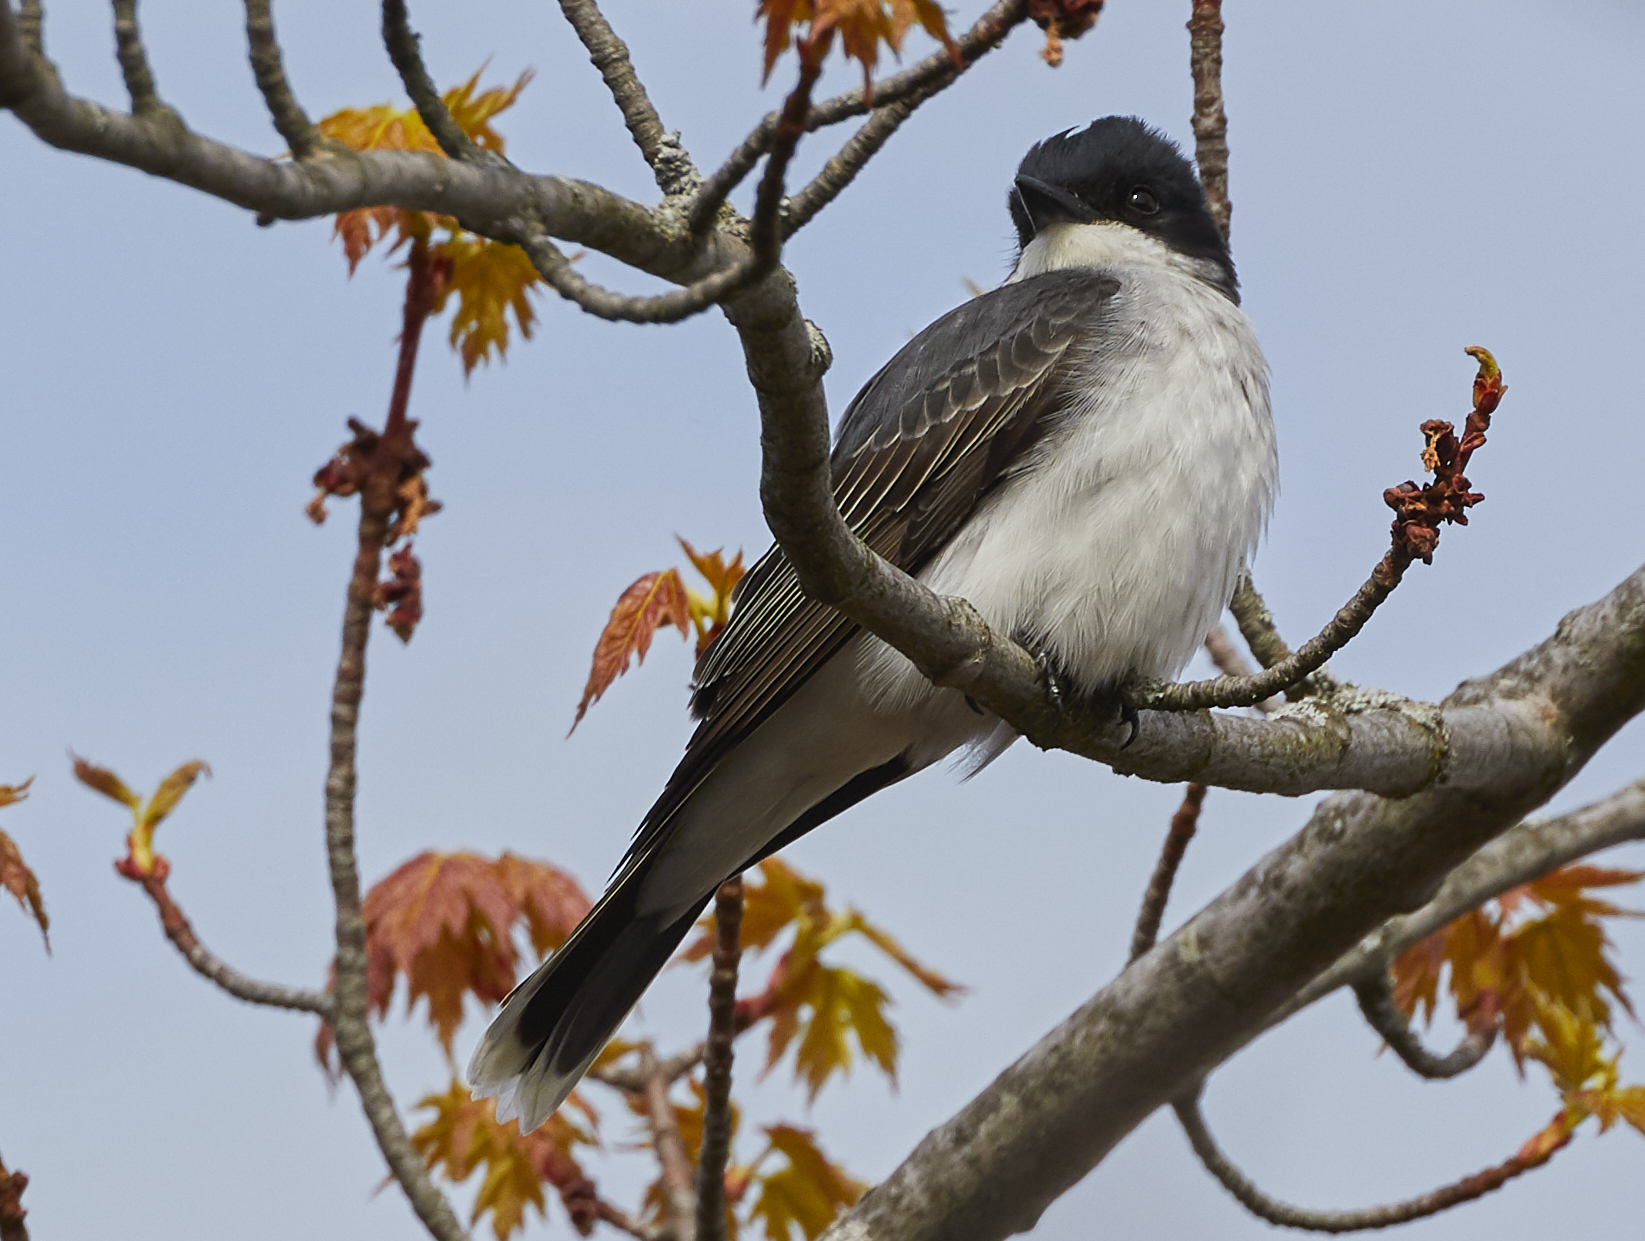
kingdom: Animalia
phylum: Chordata
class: Aves
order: Passeriformes
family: Tyrannidae
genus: Tyrannus
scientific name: Tyrannus tyrannus
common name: Eastern kingbird
